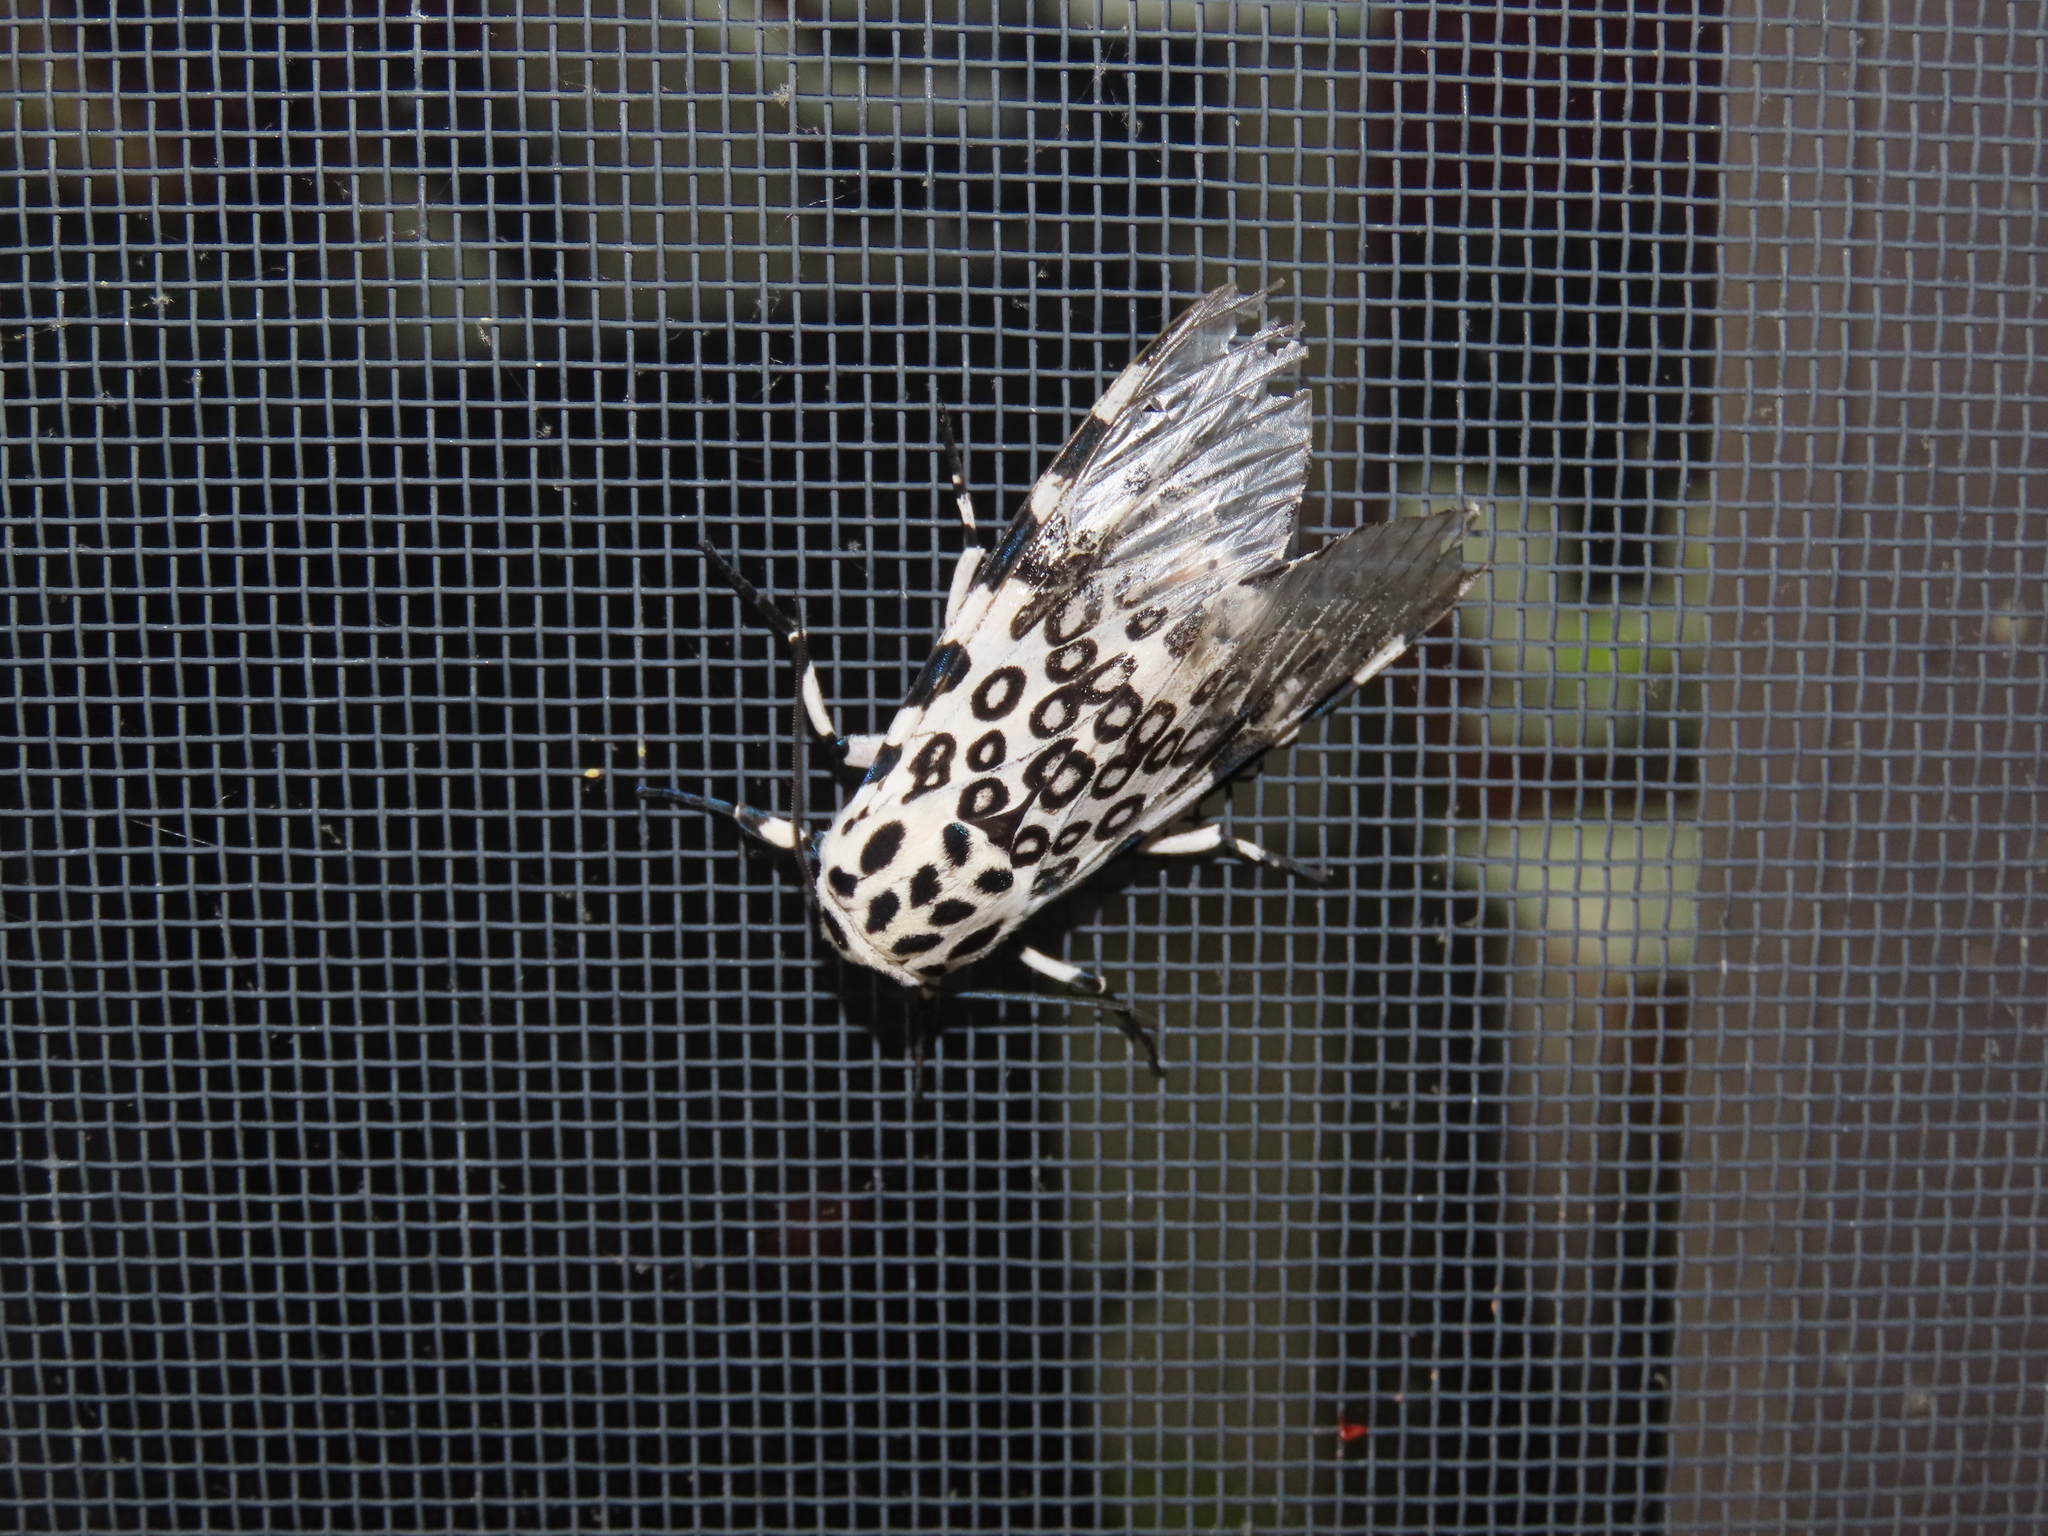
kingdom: Animalia
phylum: Arthropoda
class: Insecta
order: Lepidoptera
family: Erebidae
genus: Hypercompe
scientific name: Hypercompe scribonia
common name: Giant leopard moth
